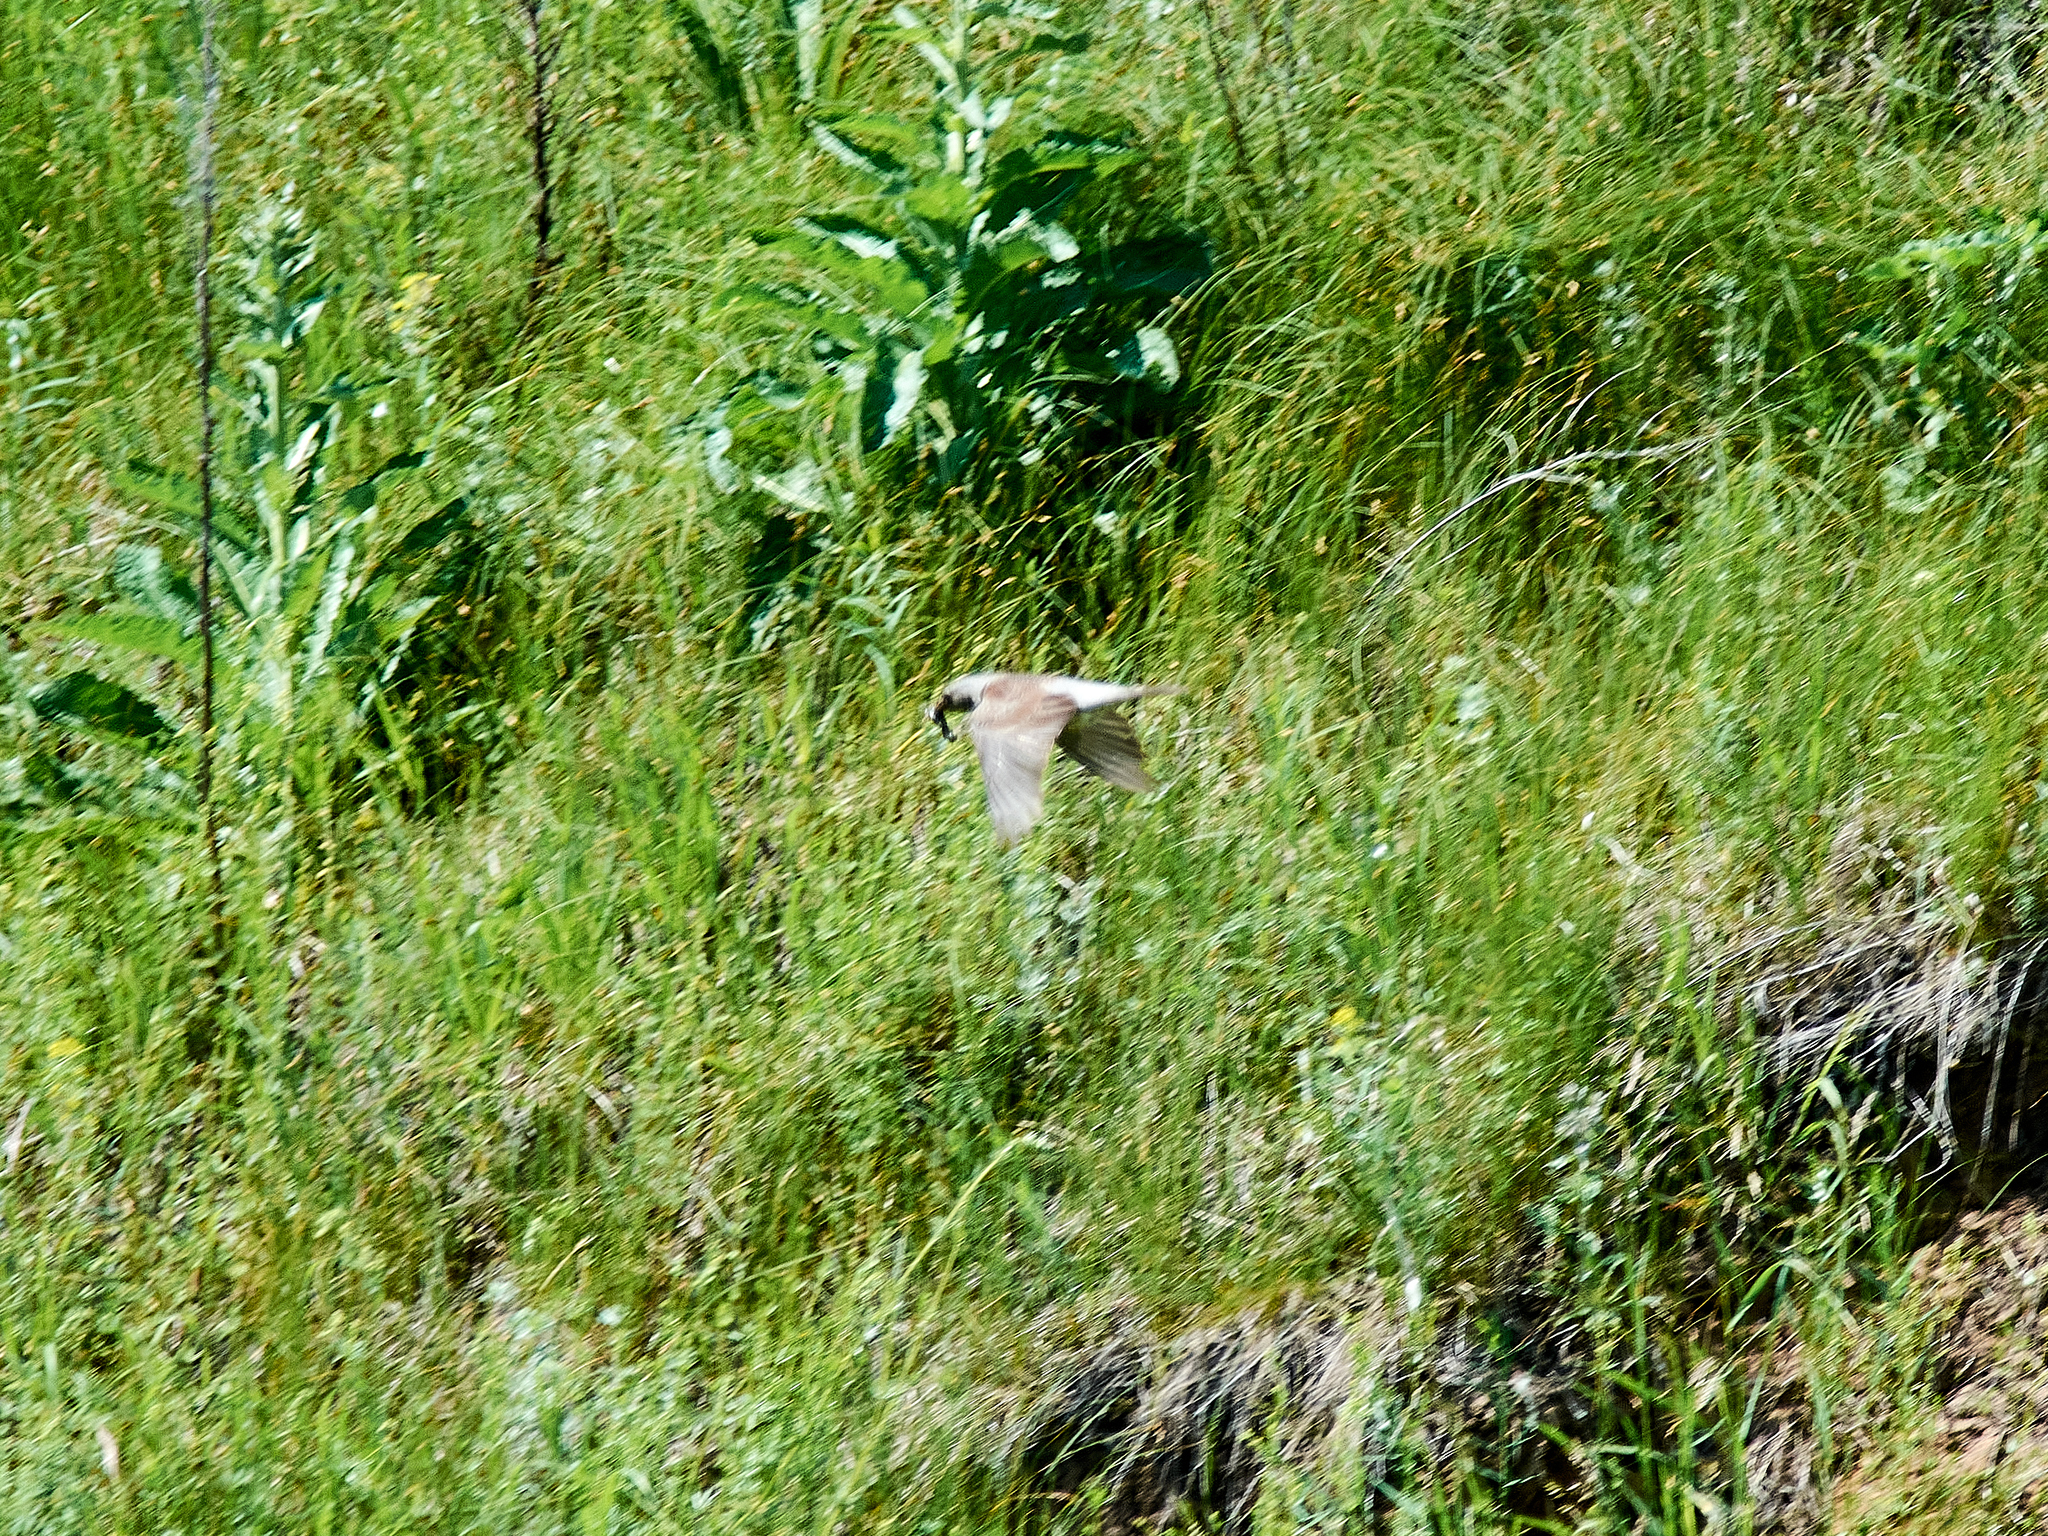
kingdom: Animalia
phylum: Chordata
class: Aves
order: Passeriformes
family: Turdidae
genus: Turdus
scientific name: Turdus pilaris
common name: Fieldfare
